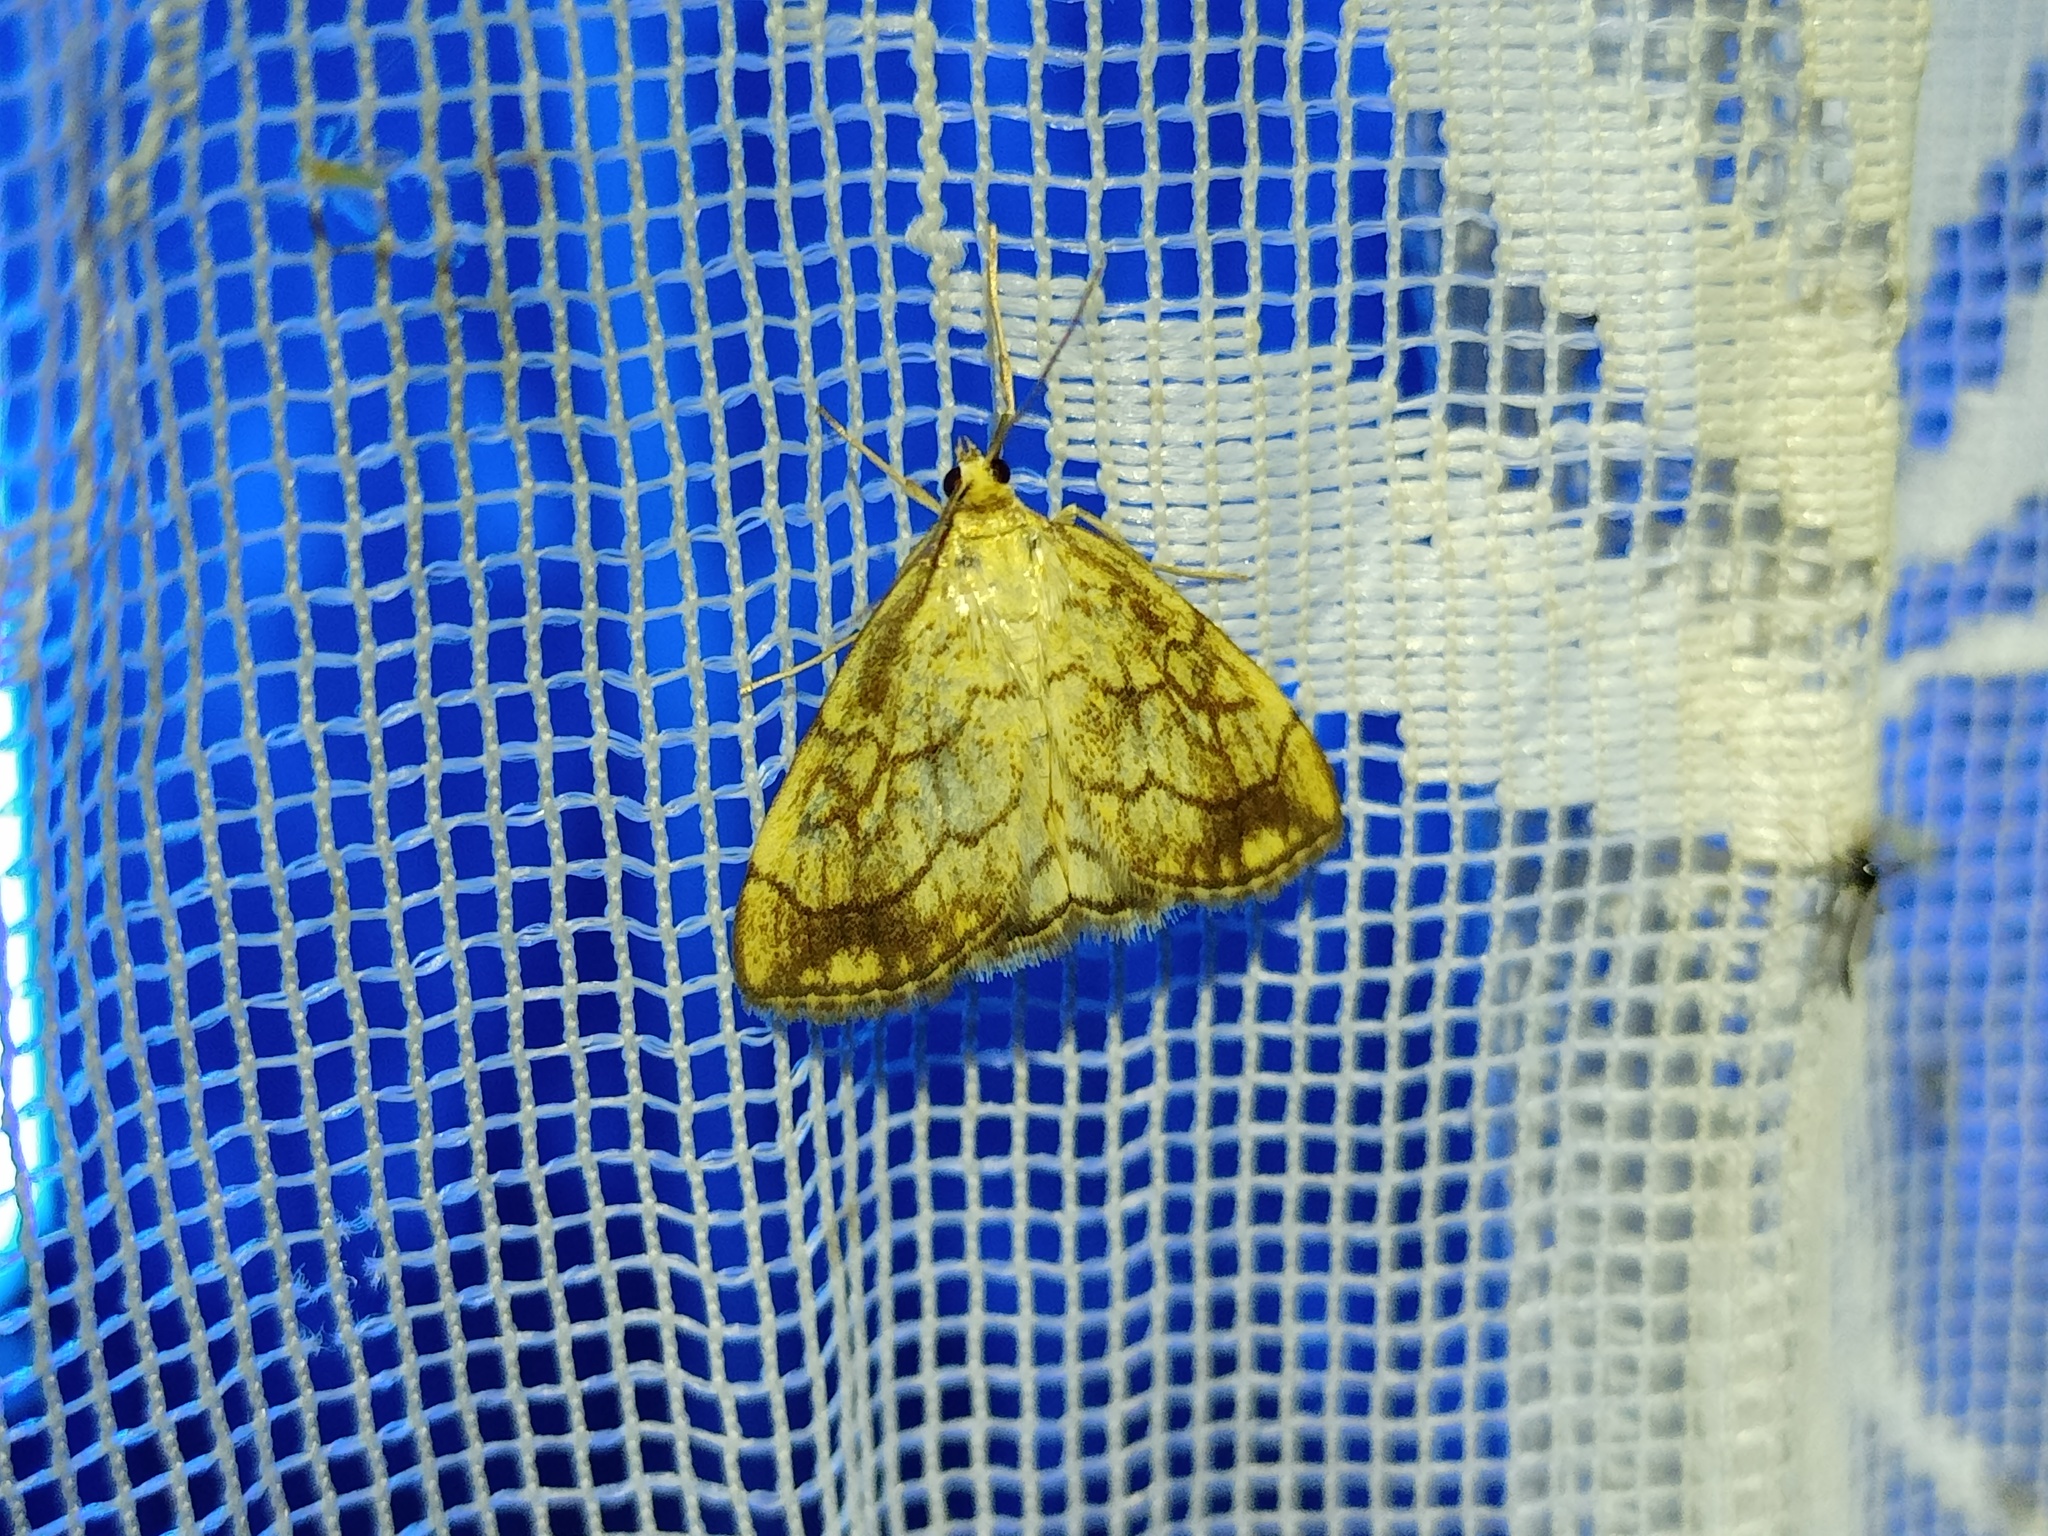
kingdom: Animalia
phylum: Arthropoda
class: Insecta
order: Lepidoptera
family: Crambidae
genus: Evergestis
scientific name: Evergestis pallidata
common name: Chequered pearl
